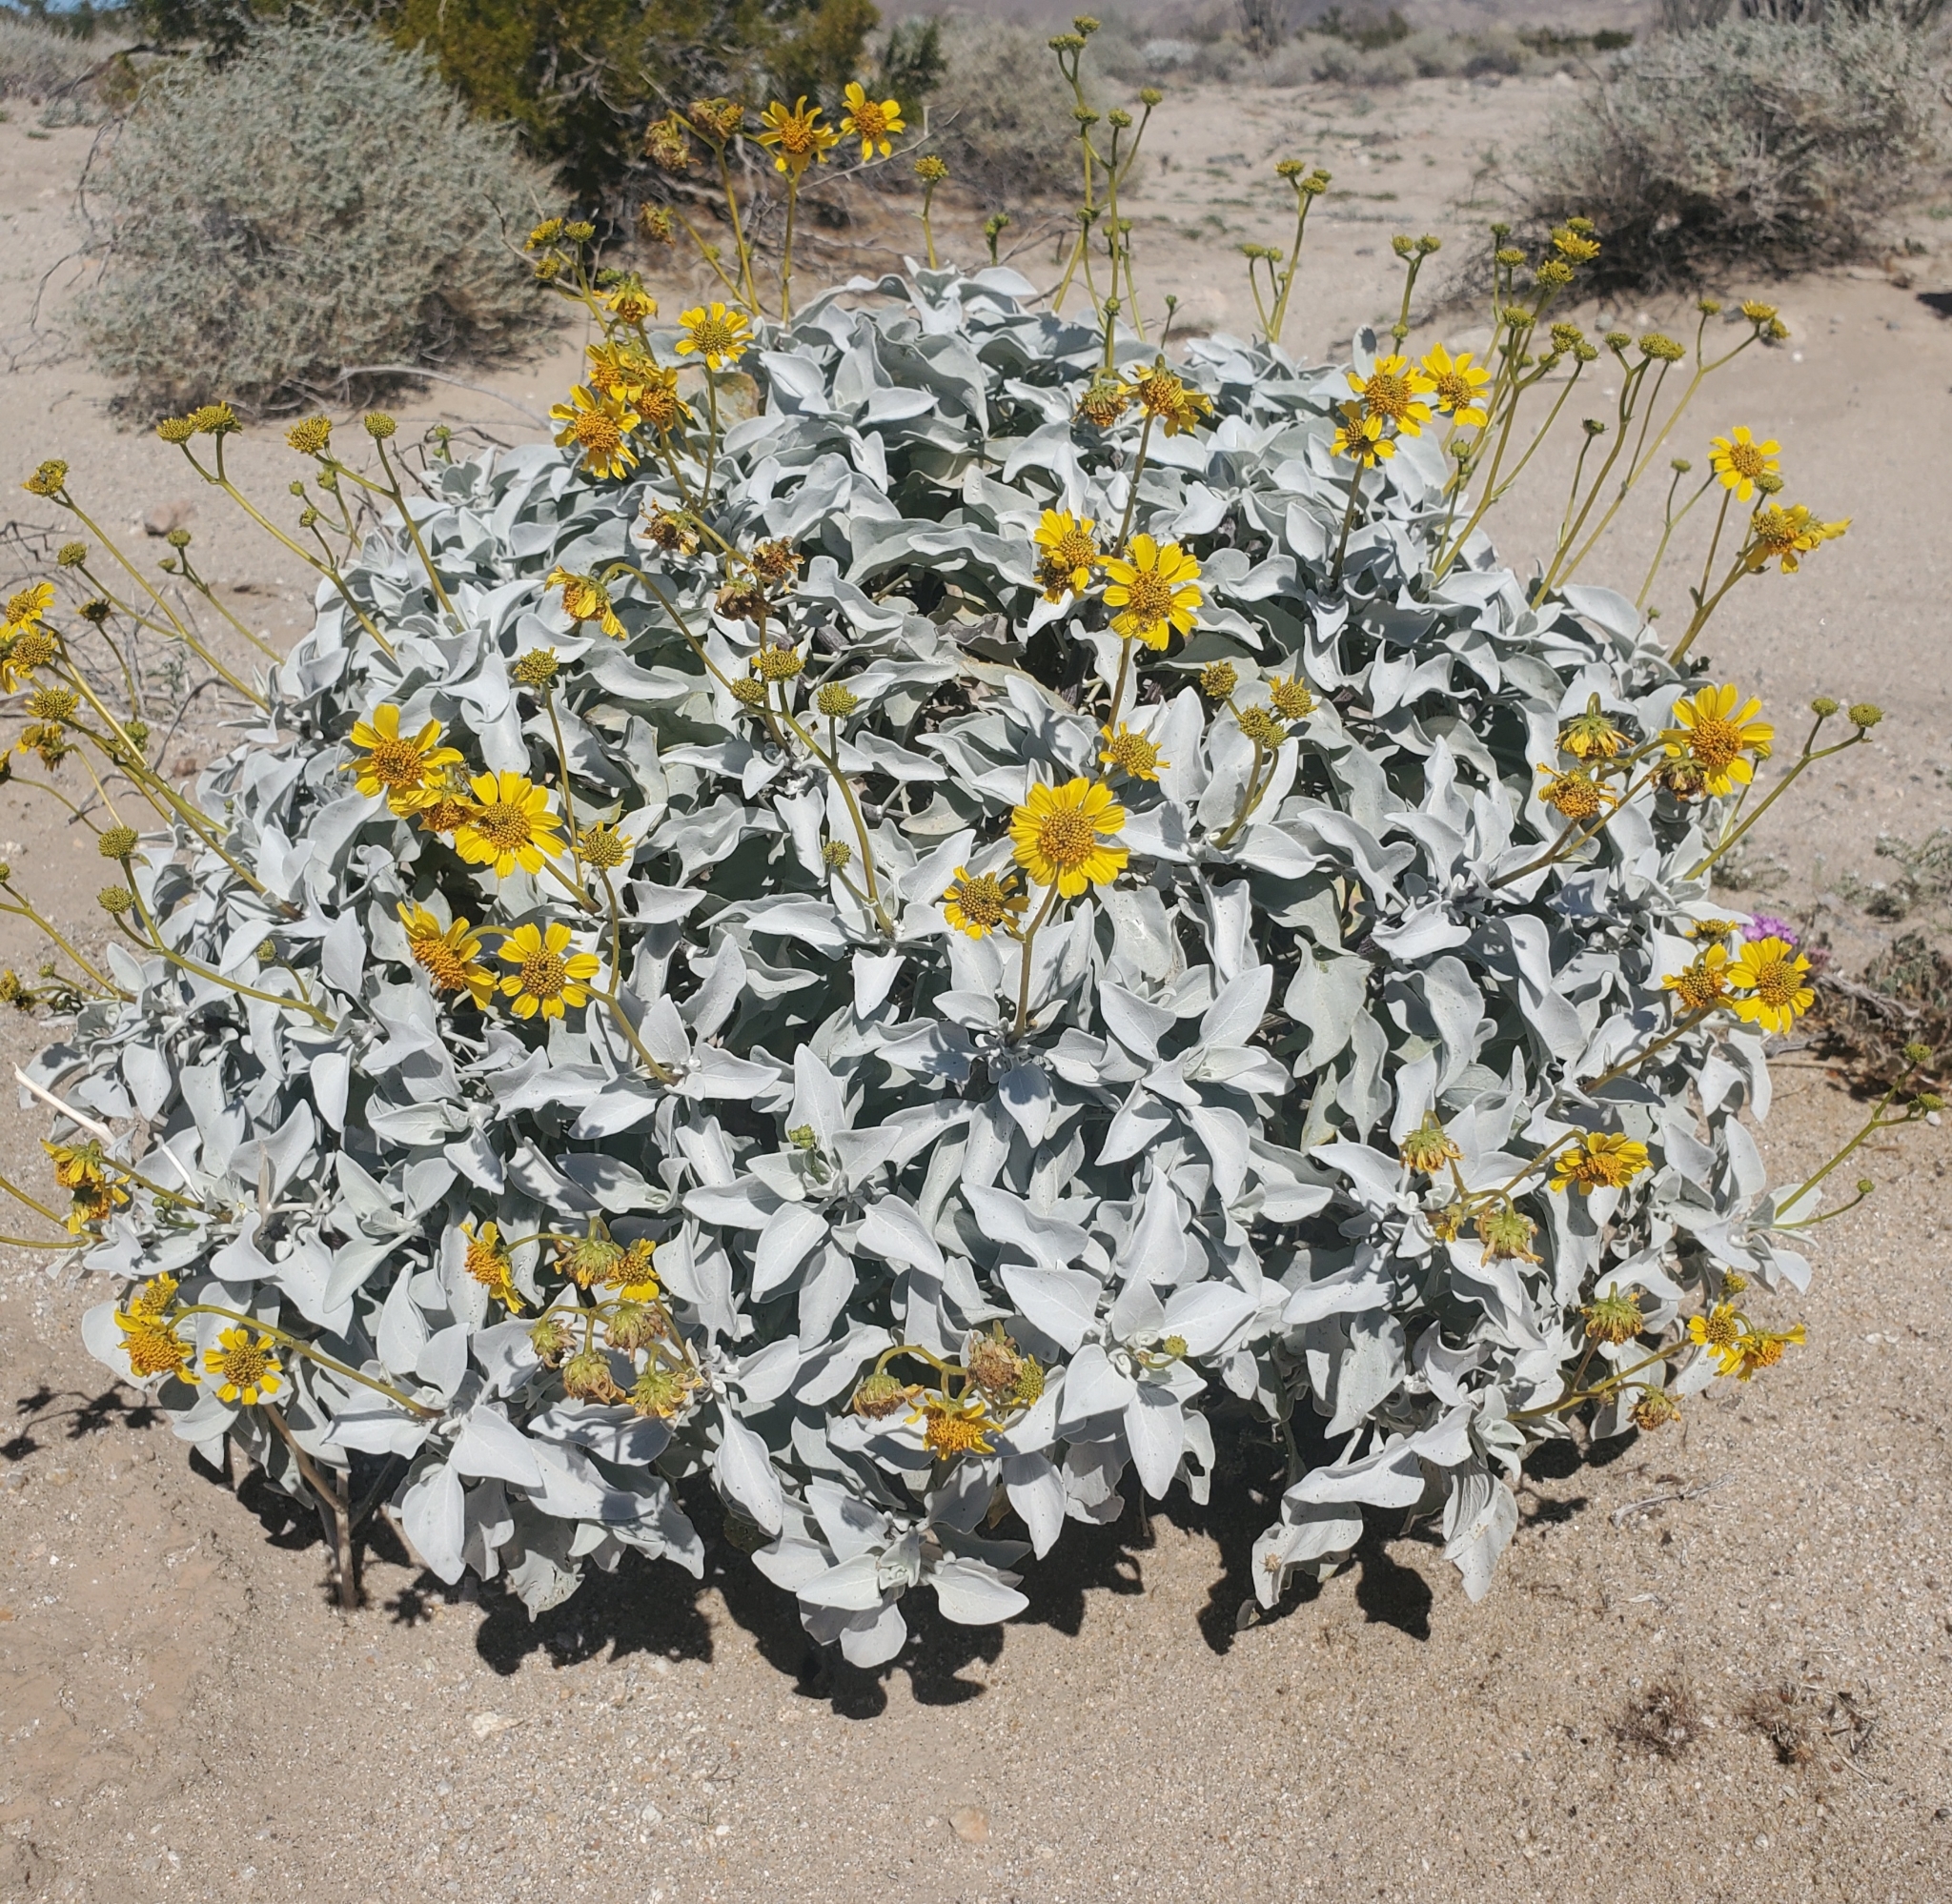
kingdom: Plantae
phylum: Tracheophyta
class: Magnoliopsida
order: Asterales
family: Asteraceae
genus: Encelia
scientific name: Encelia farinosa
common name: Brittlebush
